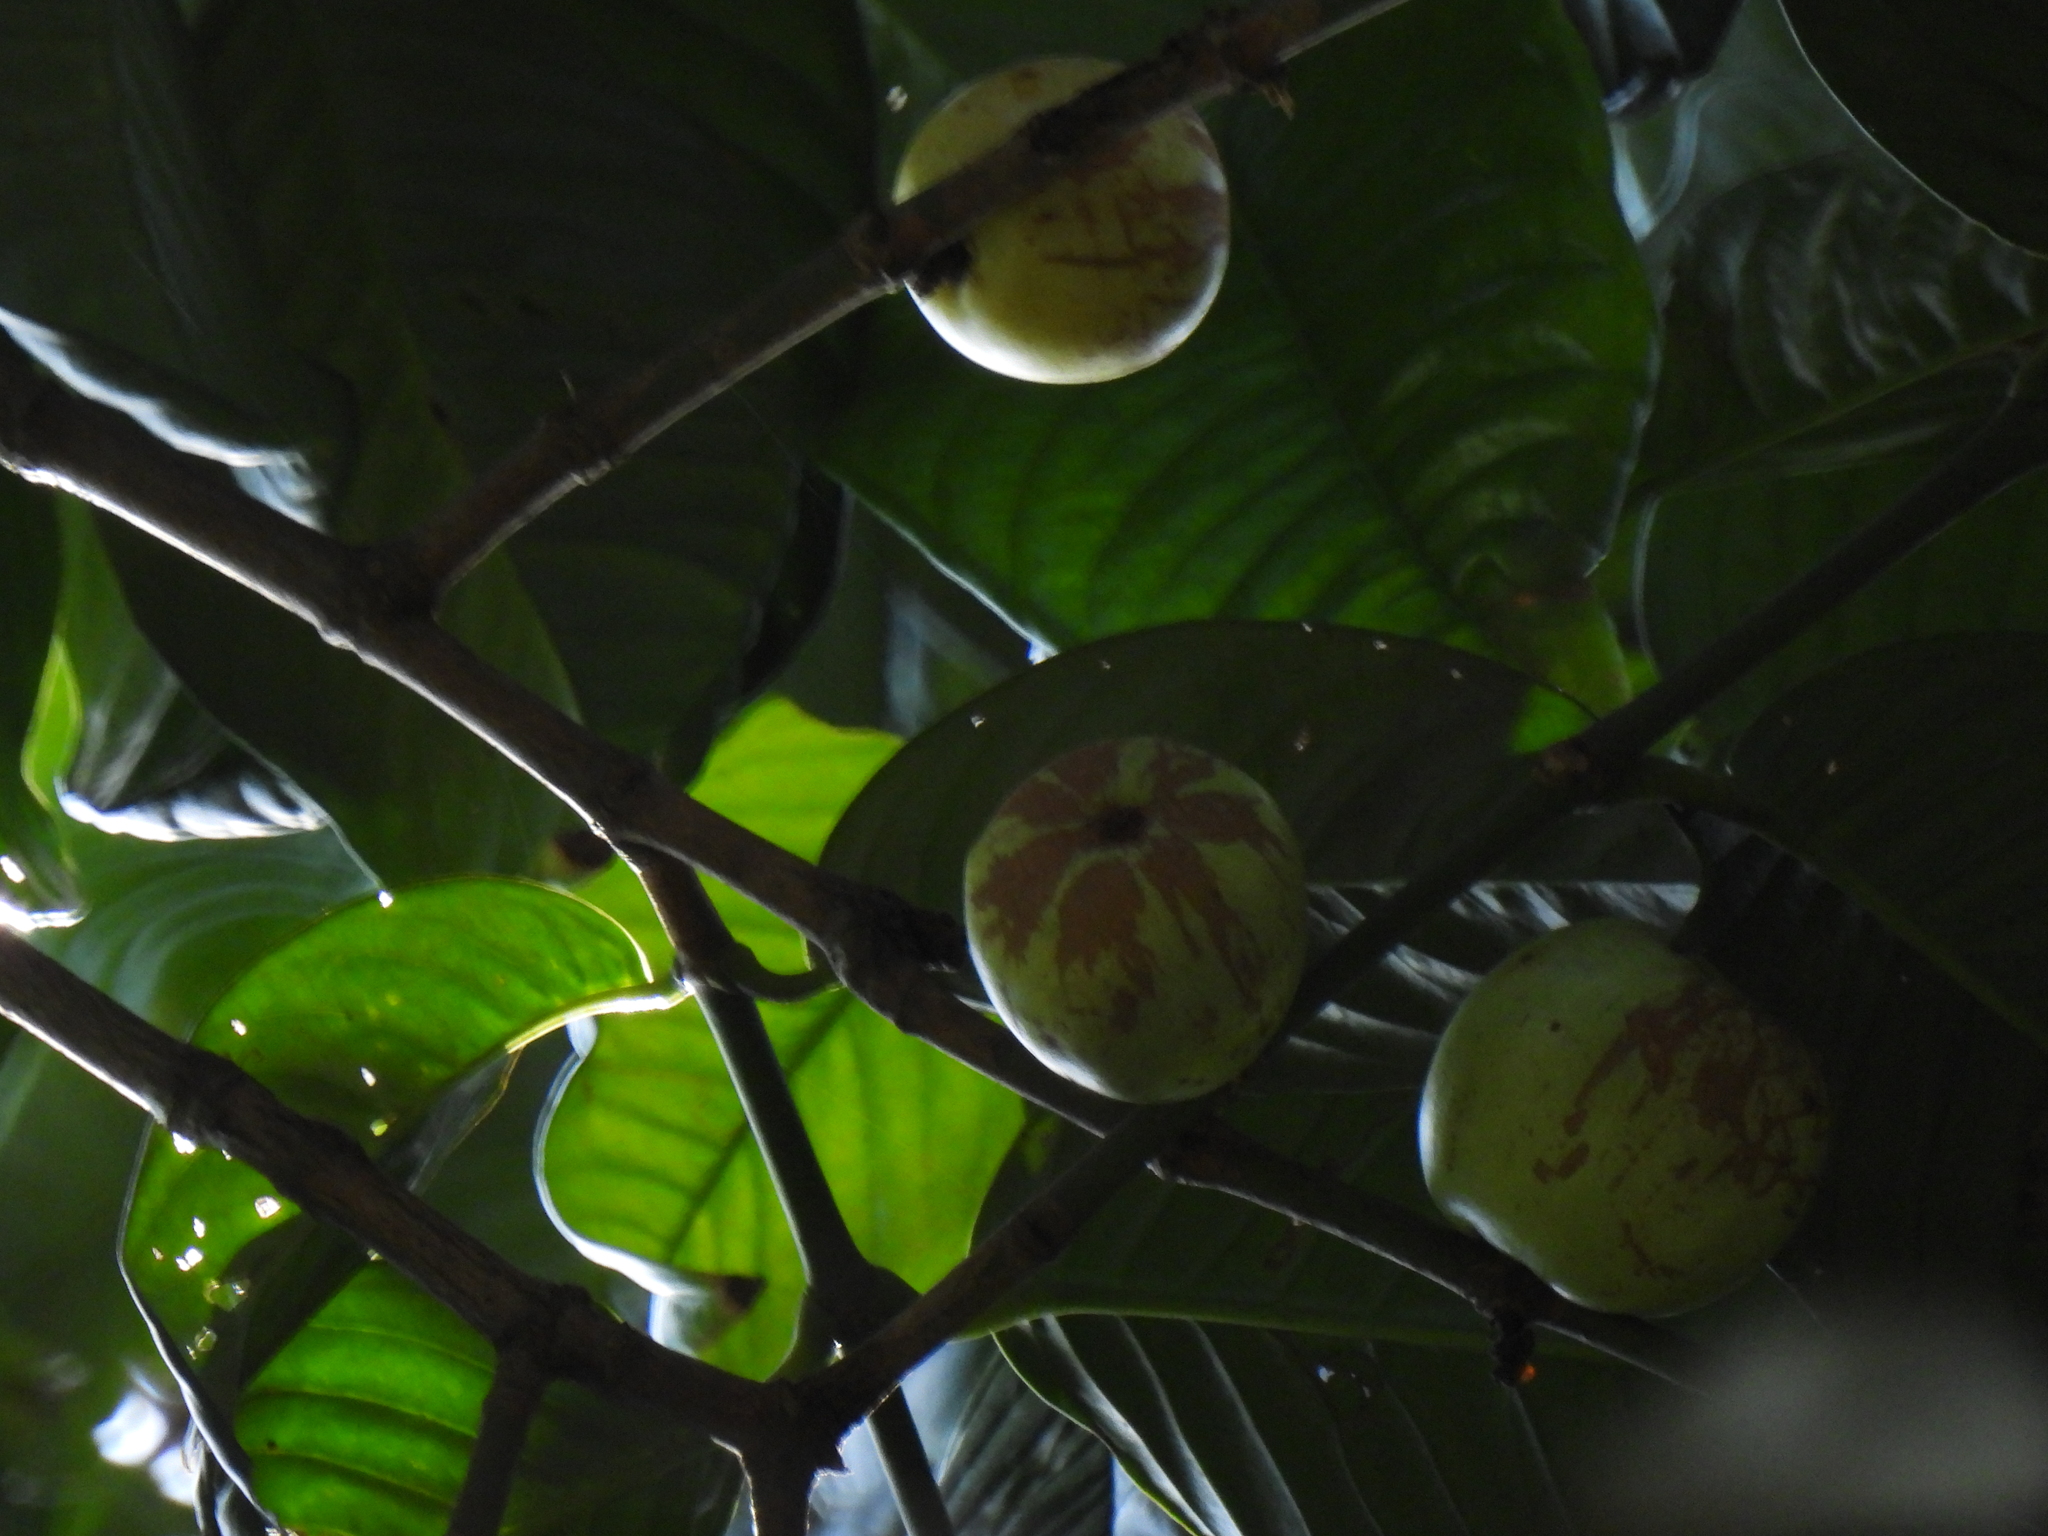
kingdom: Plantae
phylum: Tracheophyta
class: Magnoliopsida
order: Malpighiales
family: Clusiaceae
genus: Garcinia
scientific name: Garcinia griffithii
